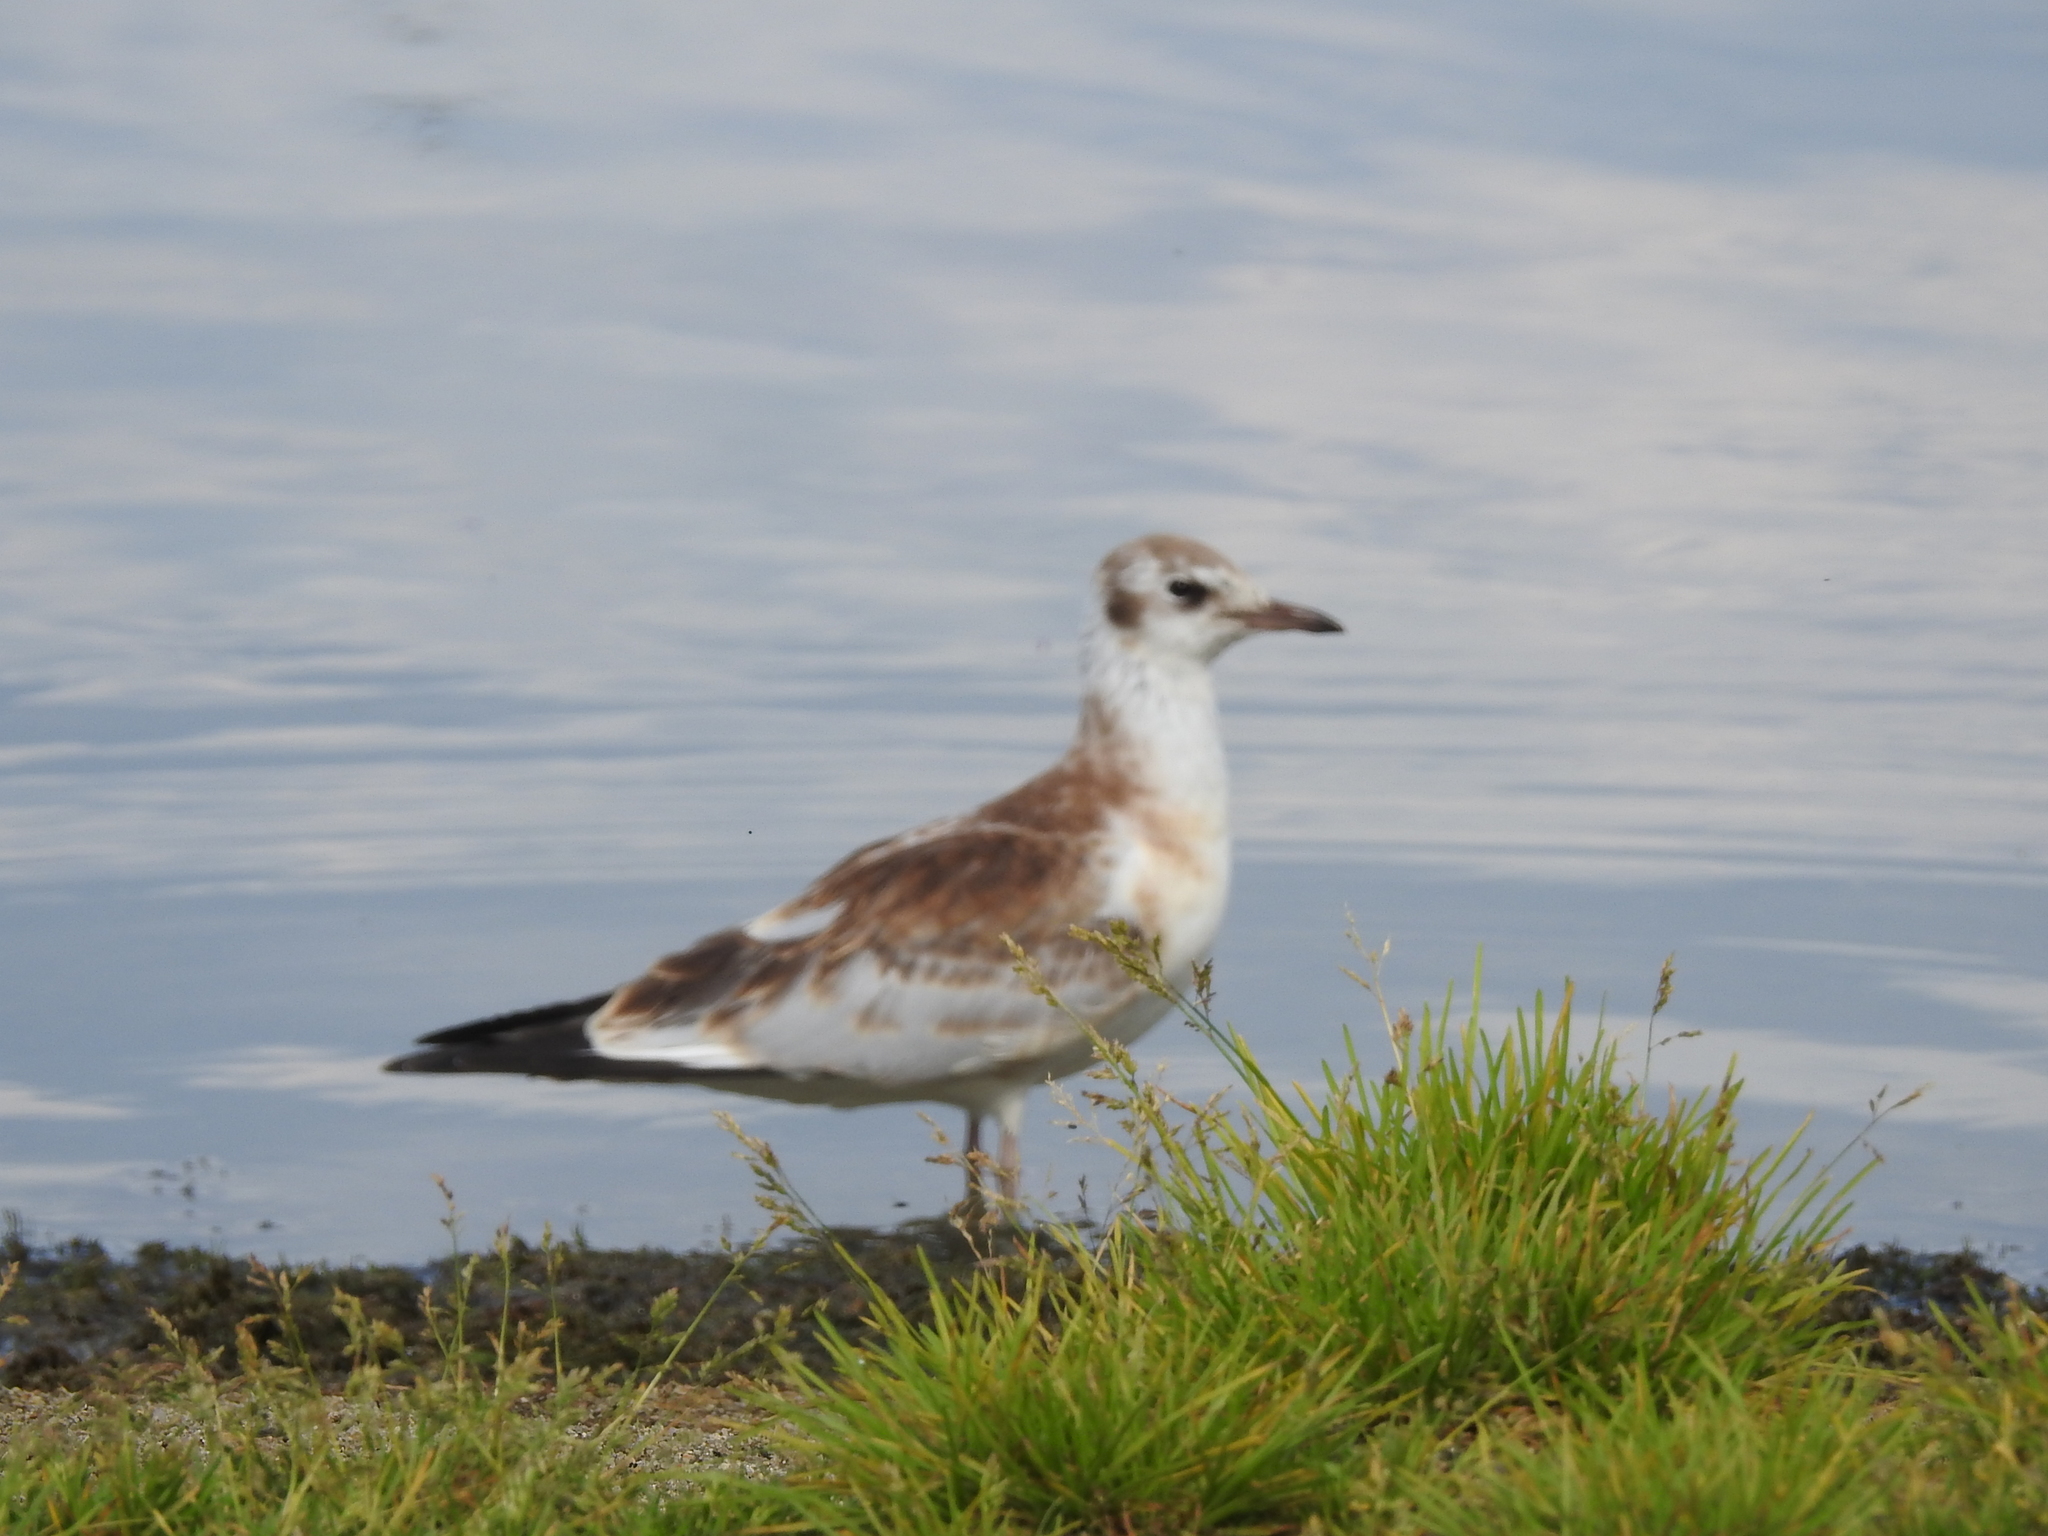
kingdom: Animalia
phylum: Chordata
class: Aves
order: Charadriiformes
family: Laridae
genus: Chroicocephalus
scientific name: Chroicocephalus ridibundus
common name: Black-headed gull
